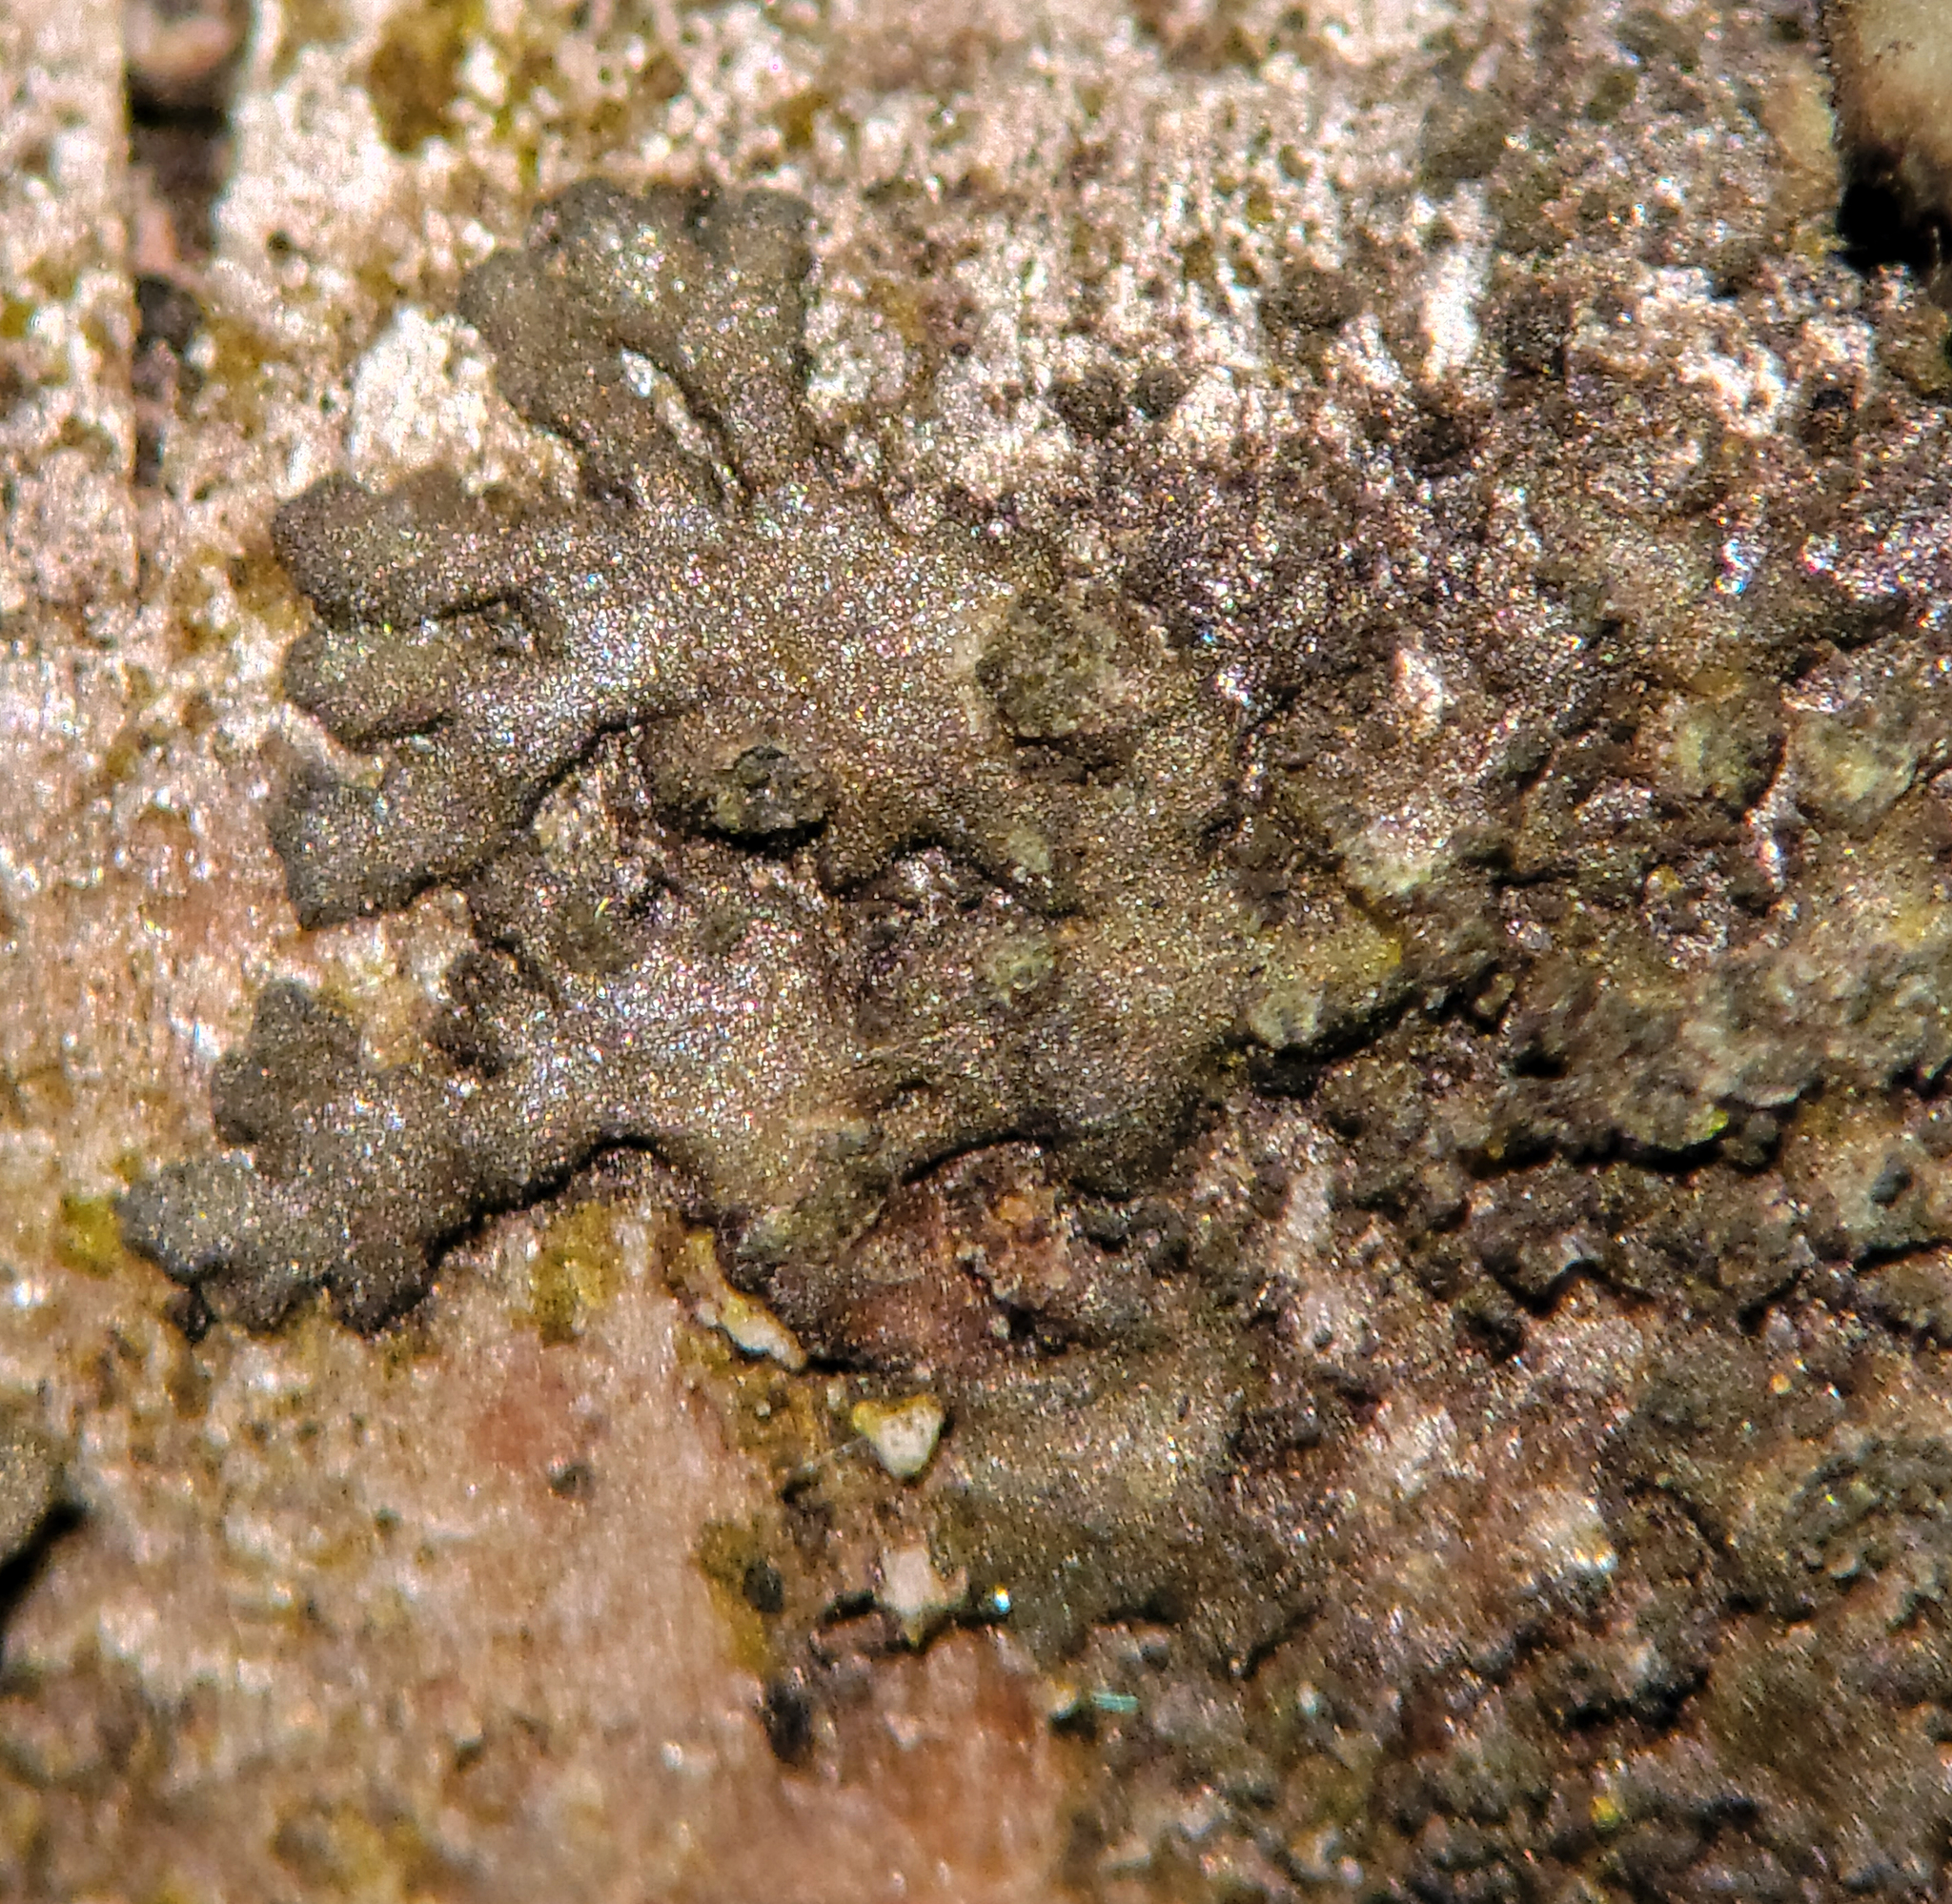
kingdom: Fungi
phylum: Ascomycota
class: Lecanoromycetes
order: Caliciales
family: Physciaceae
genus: Hyperphyscia
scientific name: Hyperphyscia adglutinata
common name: Grainy shadow-crust lichen
